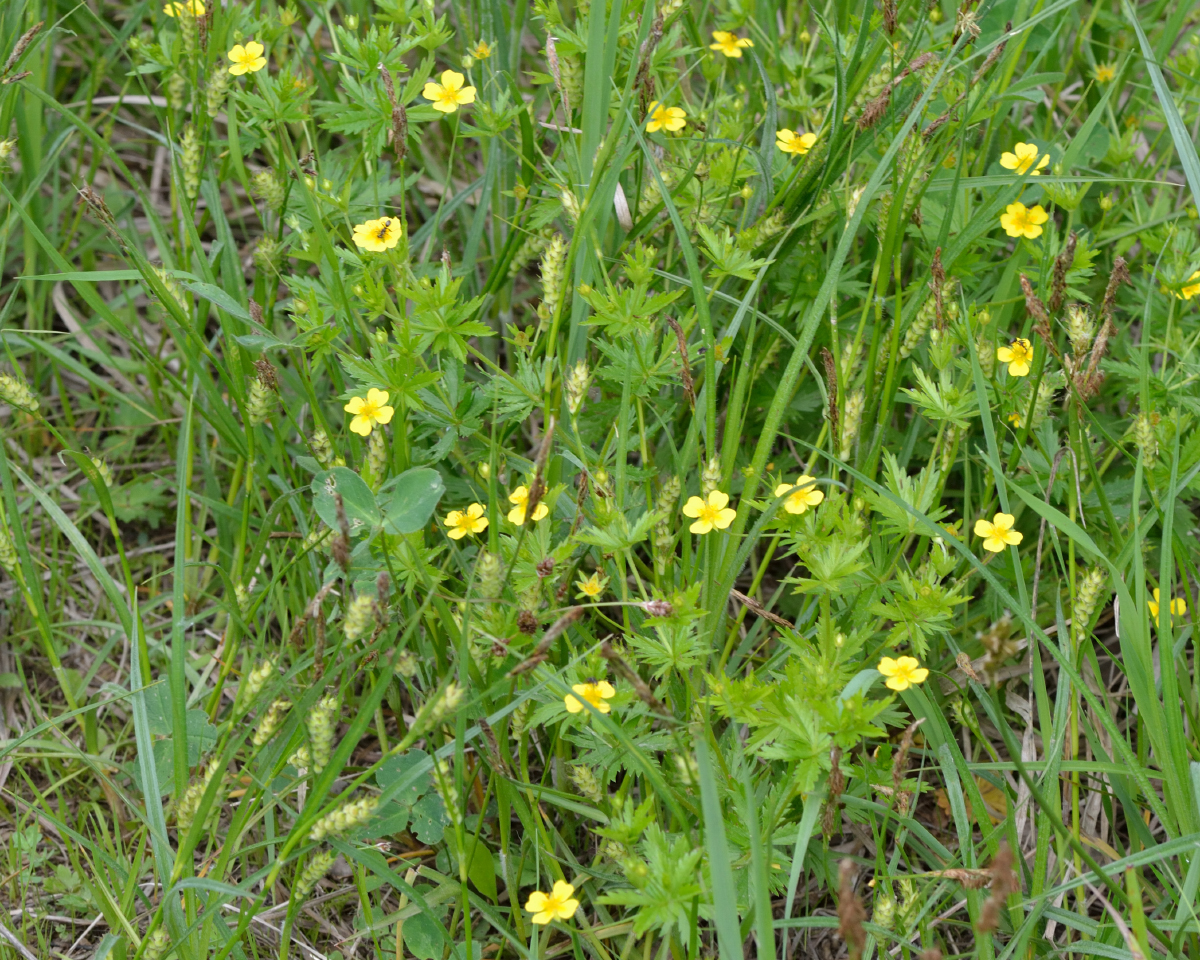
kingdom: Plantae
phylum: Tracheophyta
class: Magnoliopsida
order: Rosales
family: Rosaceae
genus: Potentilla
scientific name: Potentilla erecta
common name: Tormentil
